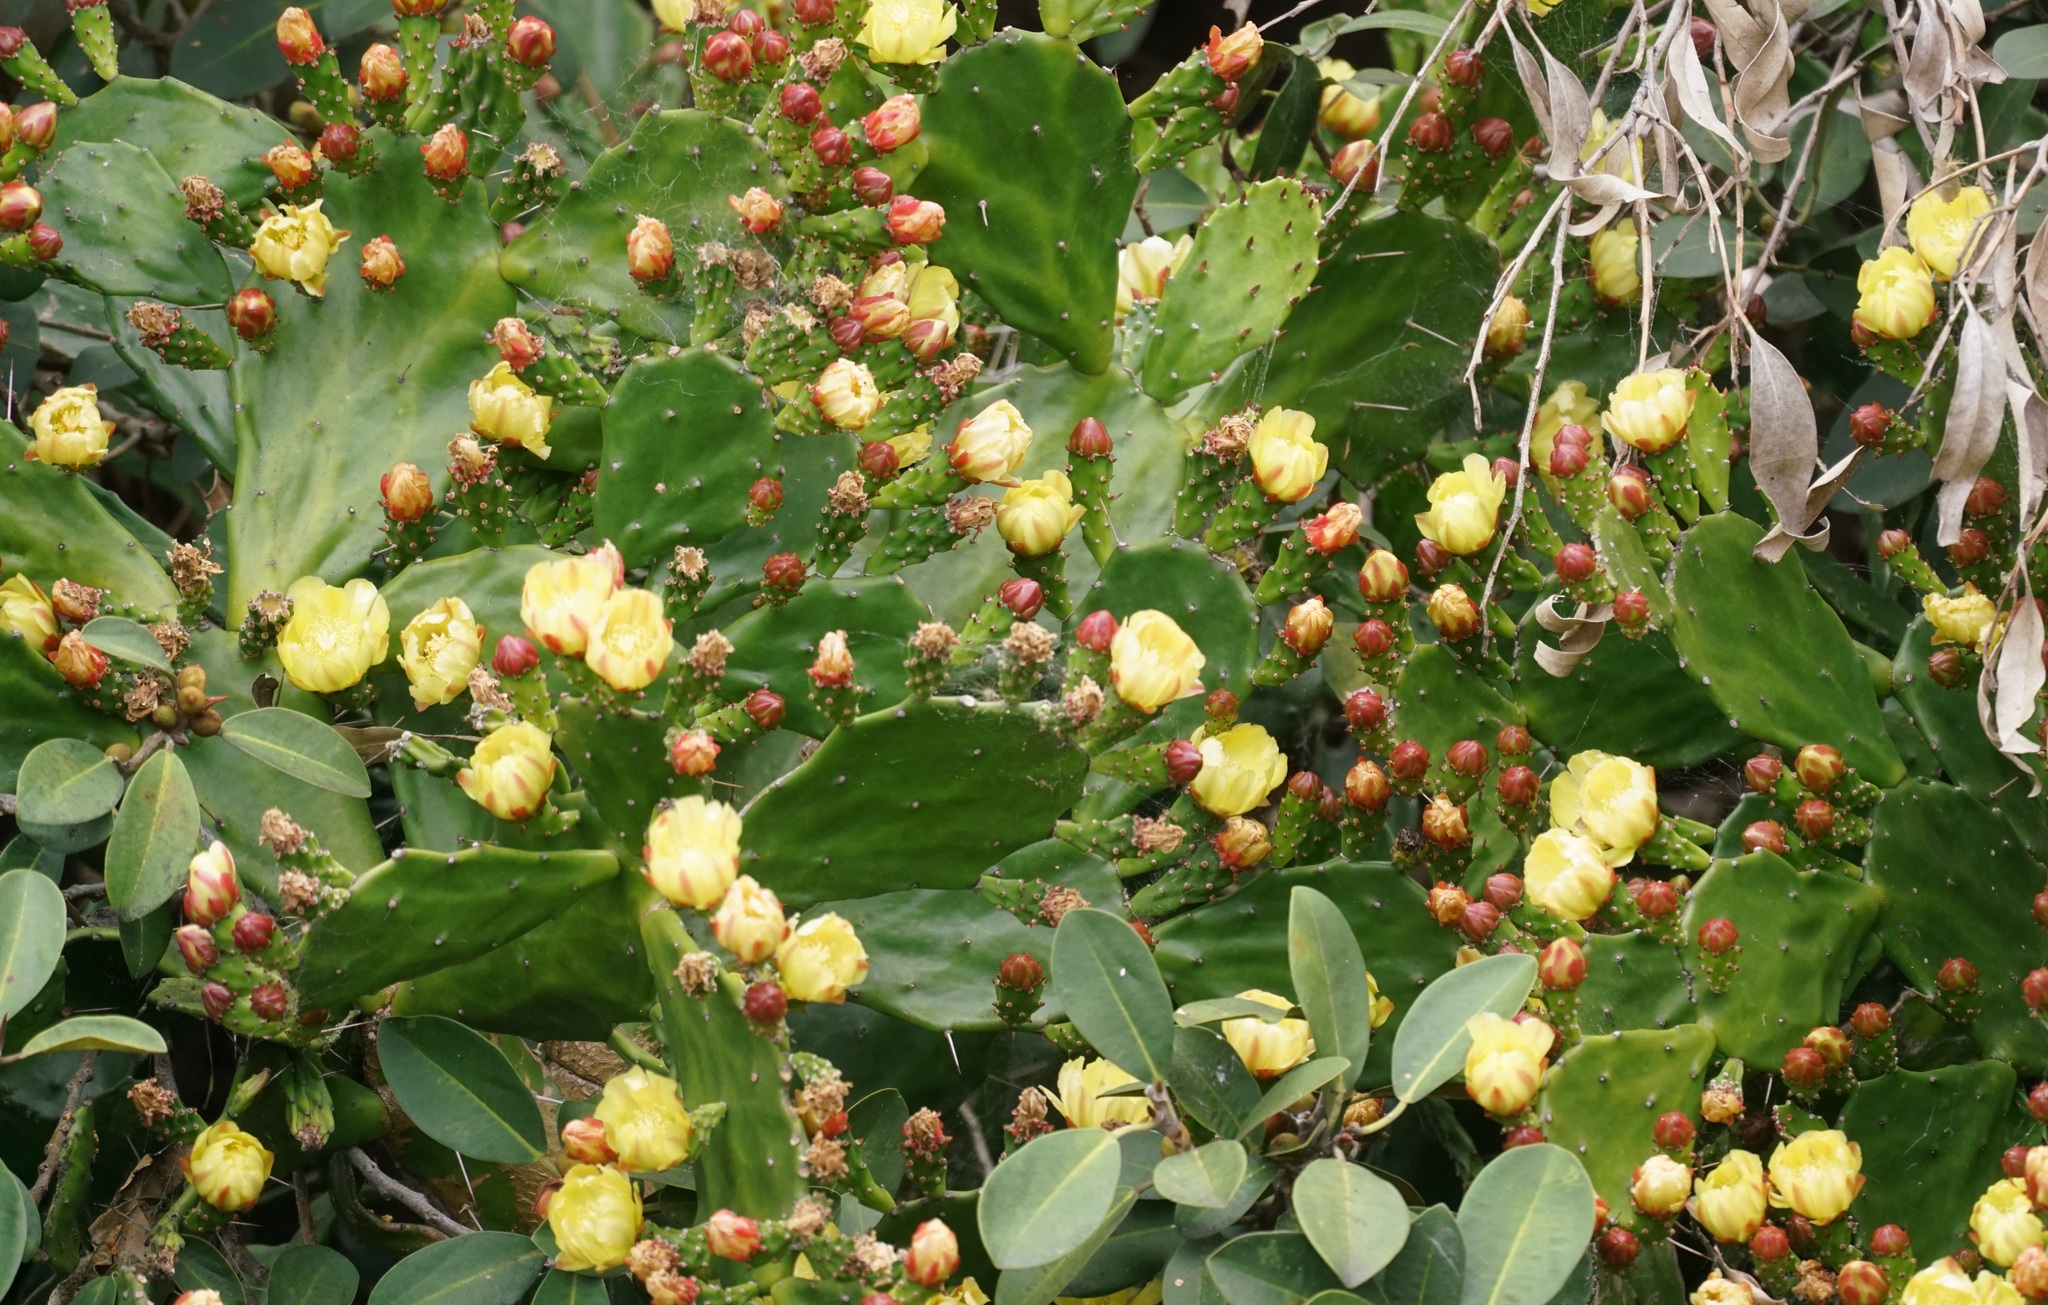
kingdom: Plantae
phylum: Tracheophyta
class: Magnoliopsida
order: Caryophyllales
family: Cactaceae
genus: Opuntia
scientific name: Opuntia monacantha
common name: Common pricklypear
